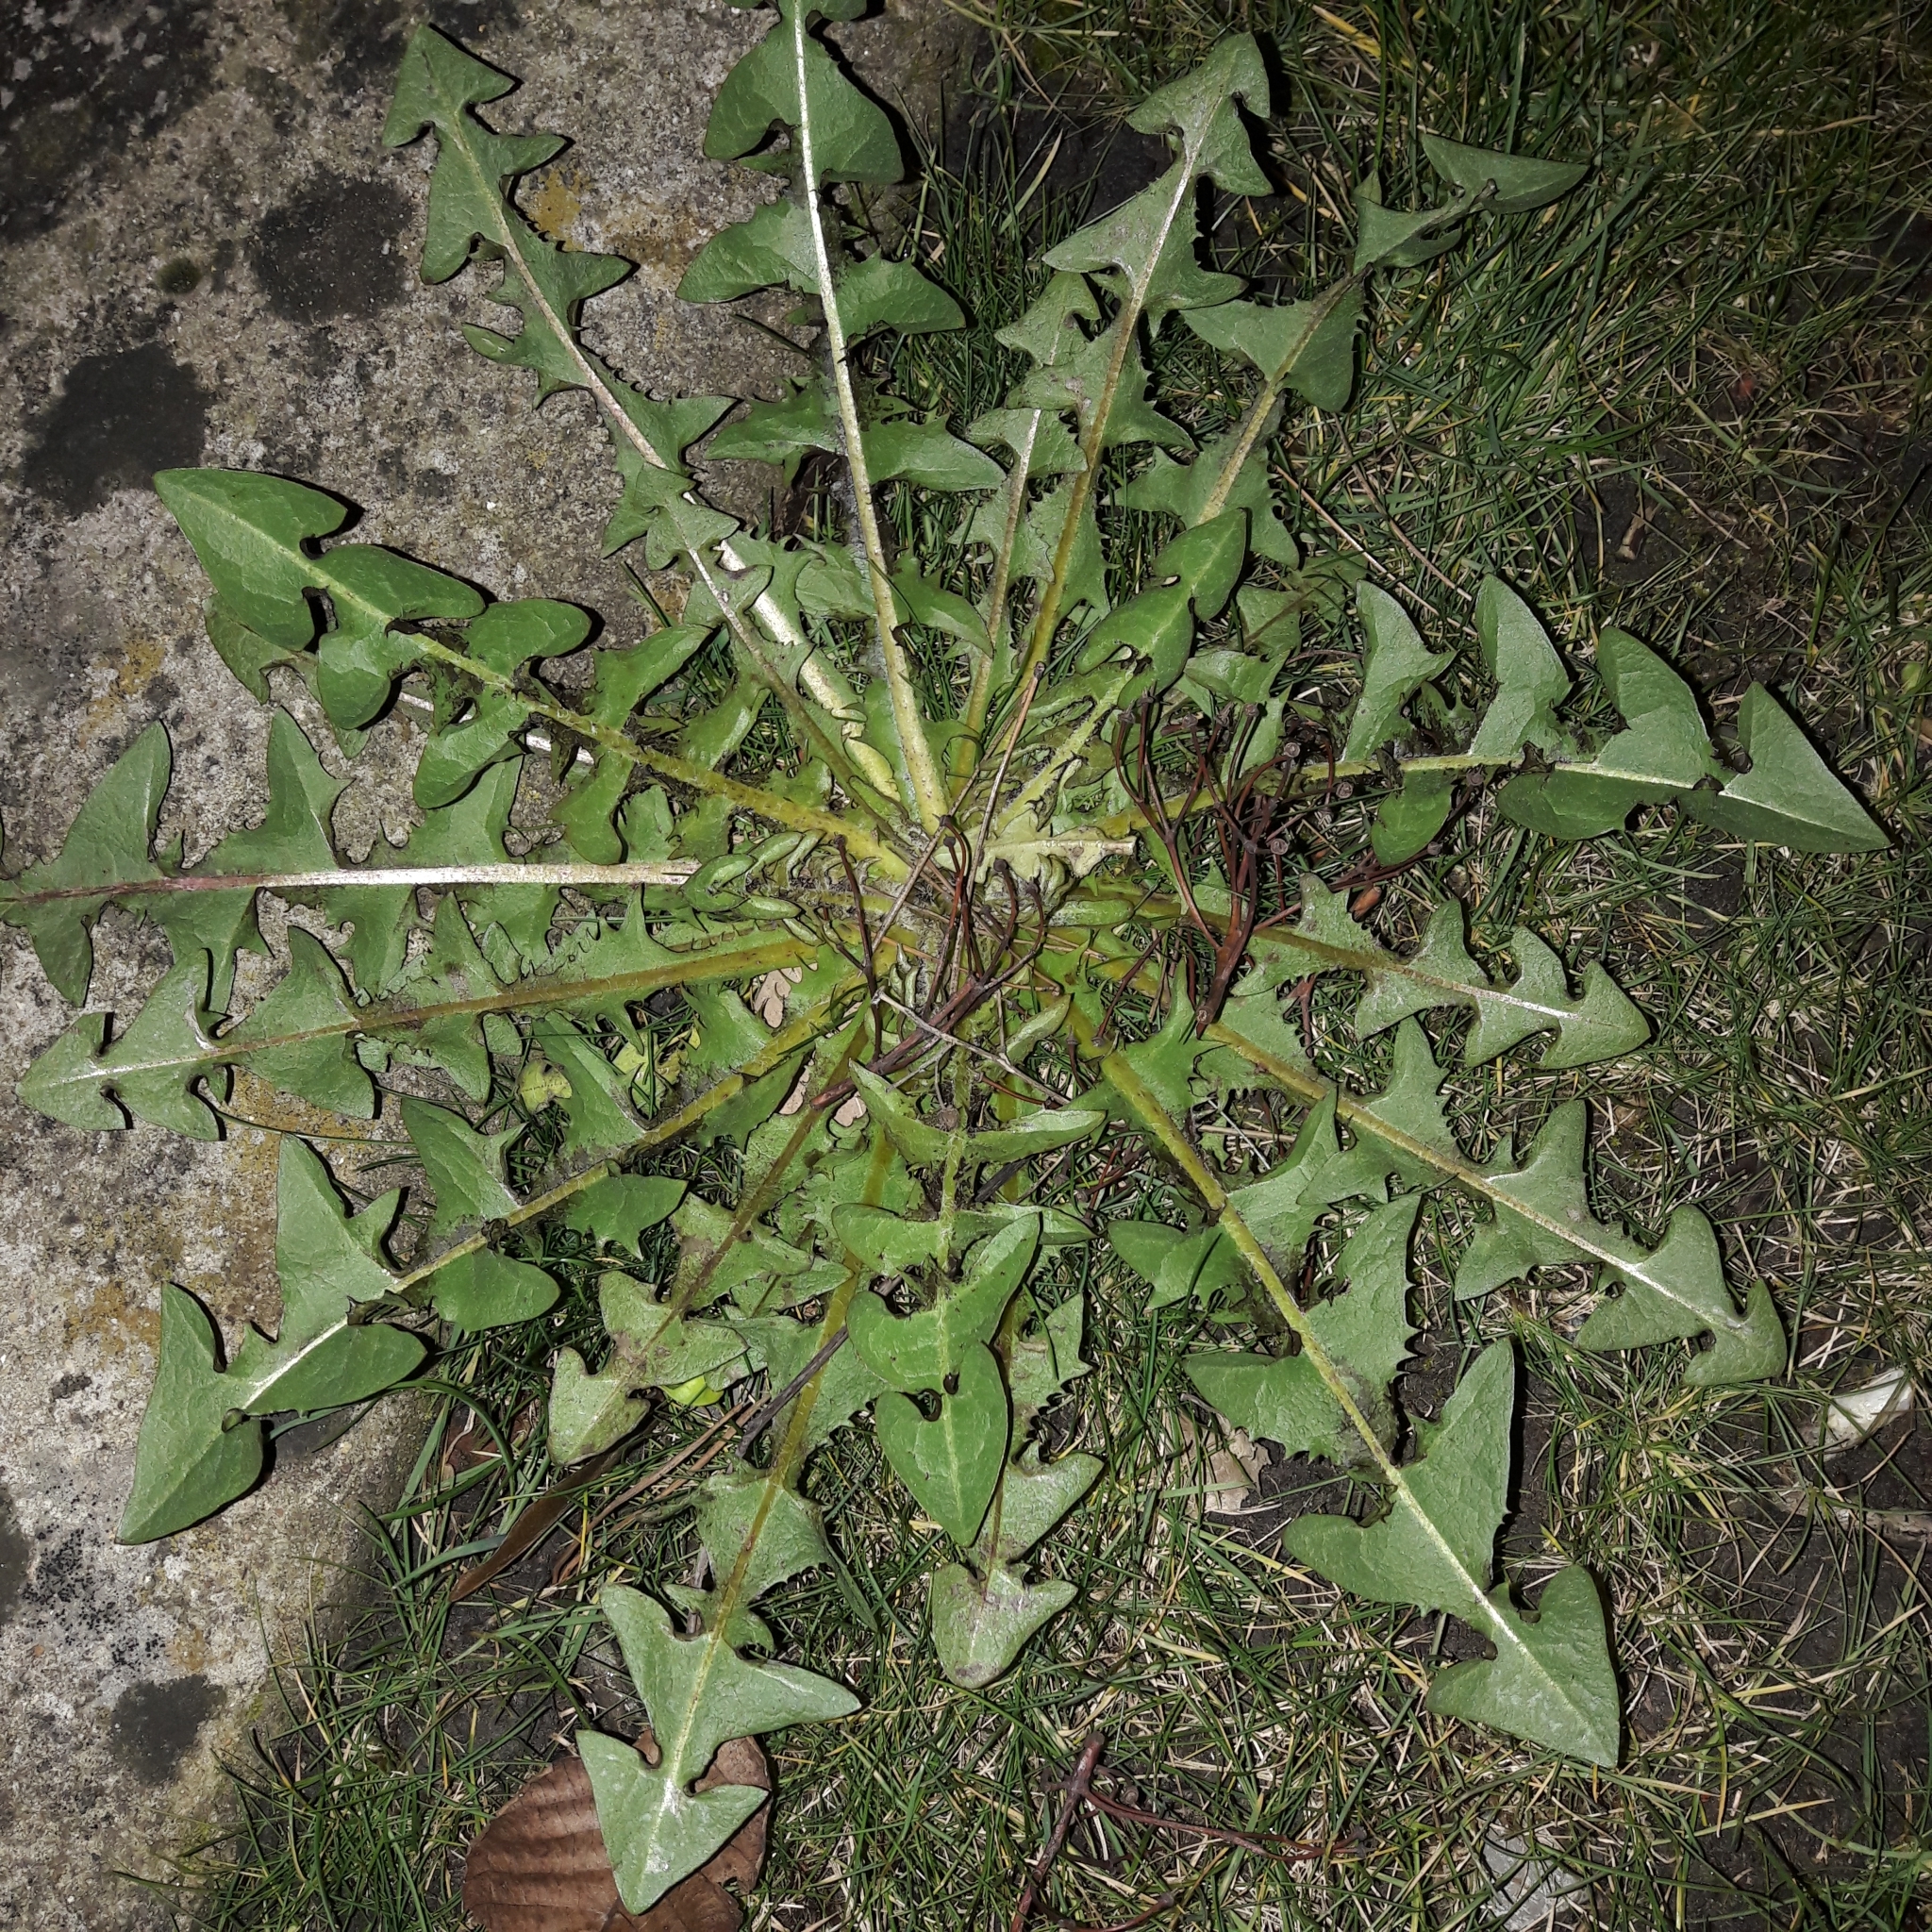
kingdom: Plantae
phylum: Tracheophyta
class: Magnoliopsida
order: Asterales
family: Asteraceae
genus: Taraxacum
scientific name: Taraxacum officinale
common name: Common dandelion
